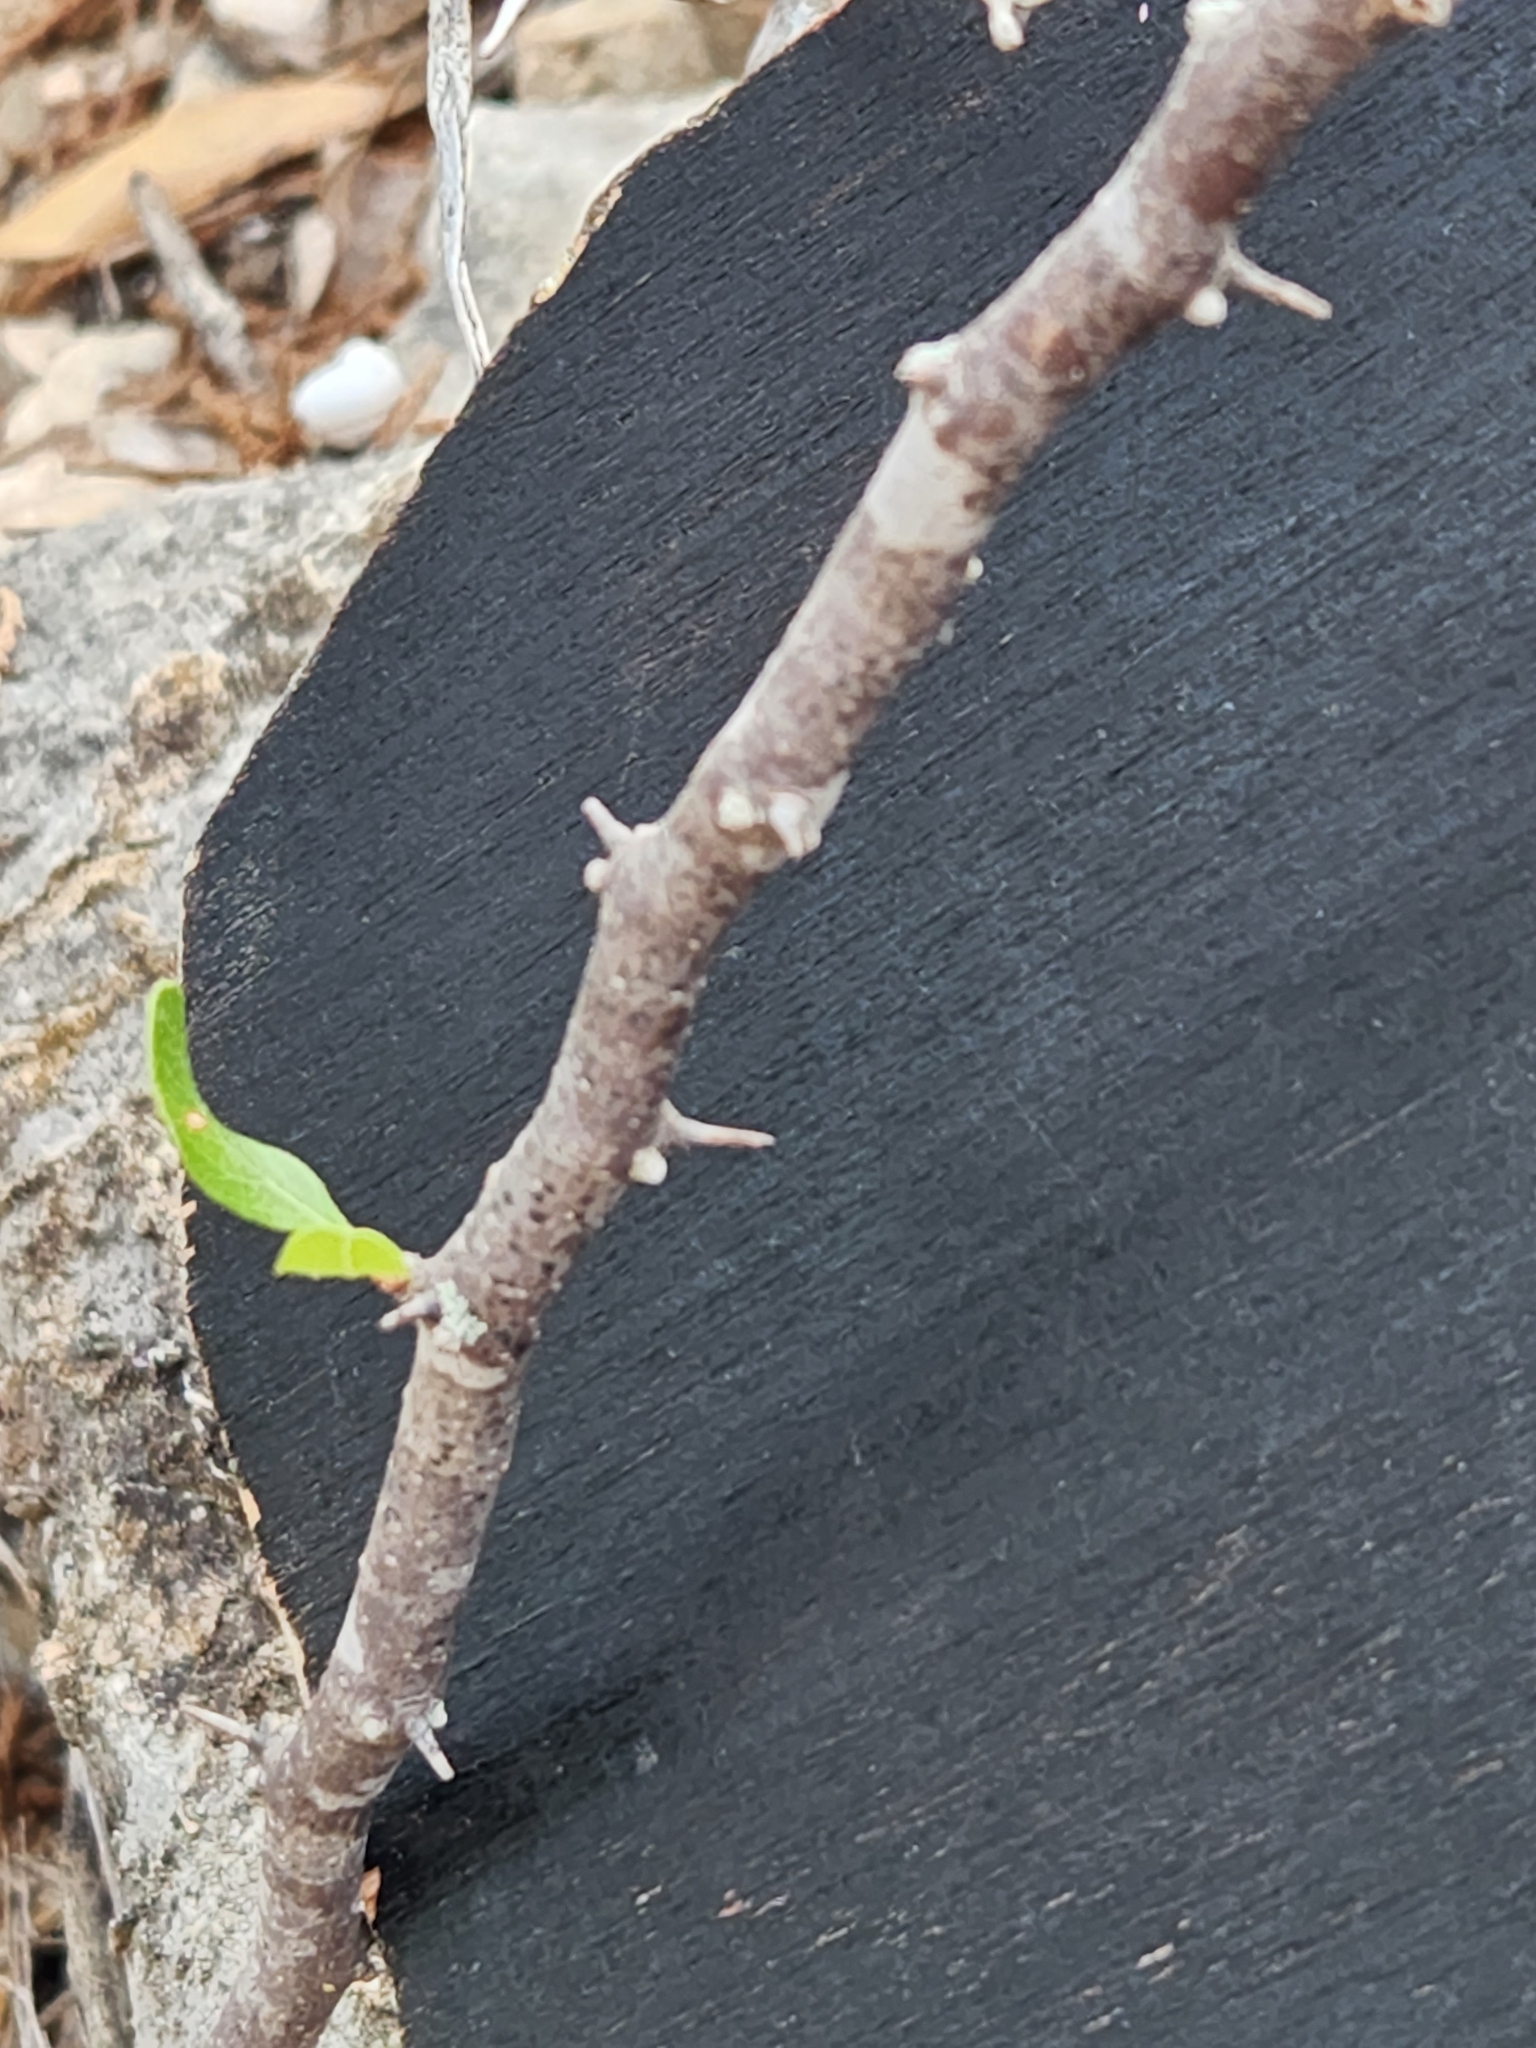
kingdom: Plantae
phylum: Tracheophyta
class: Magnoliopsida
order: Ericales
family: Sapotaceae
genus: Sideroxylon
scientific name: Sideroxylon lanuginosum
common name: Chittamwood
